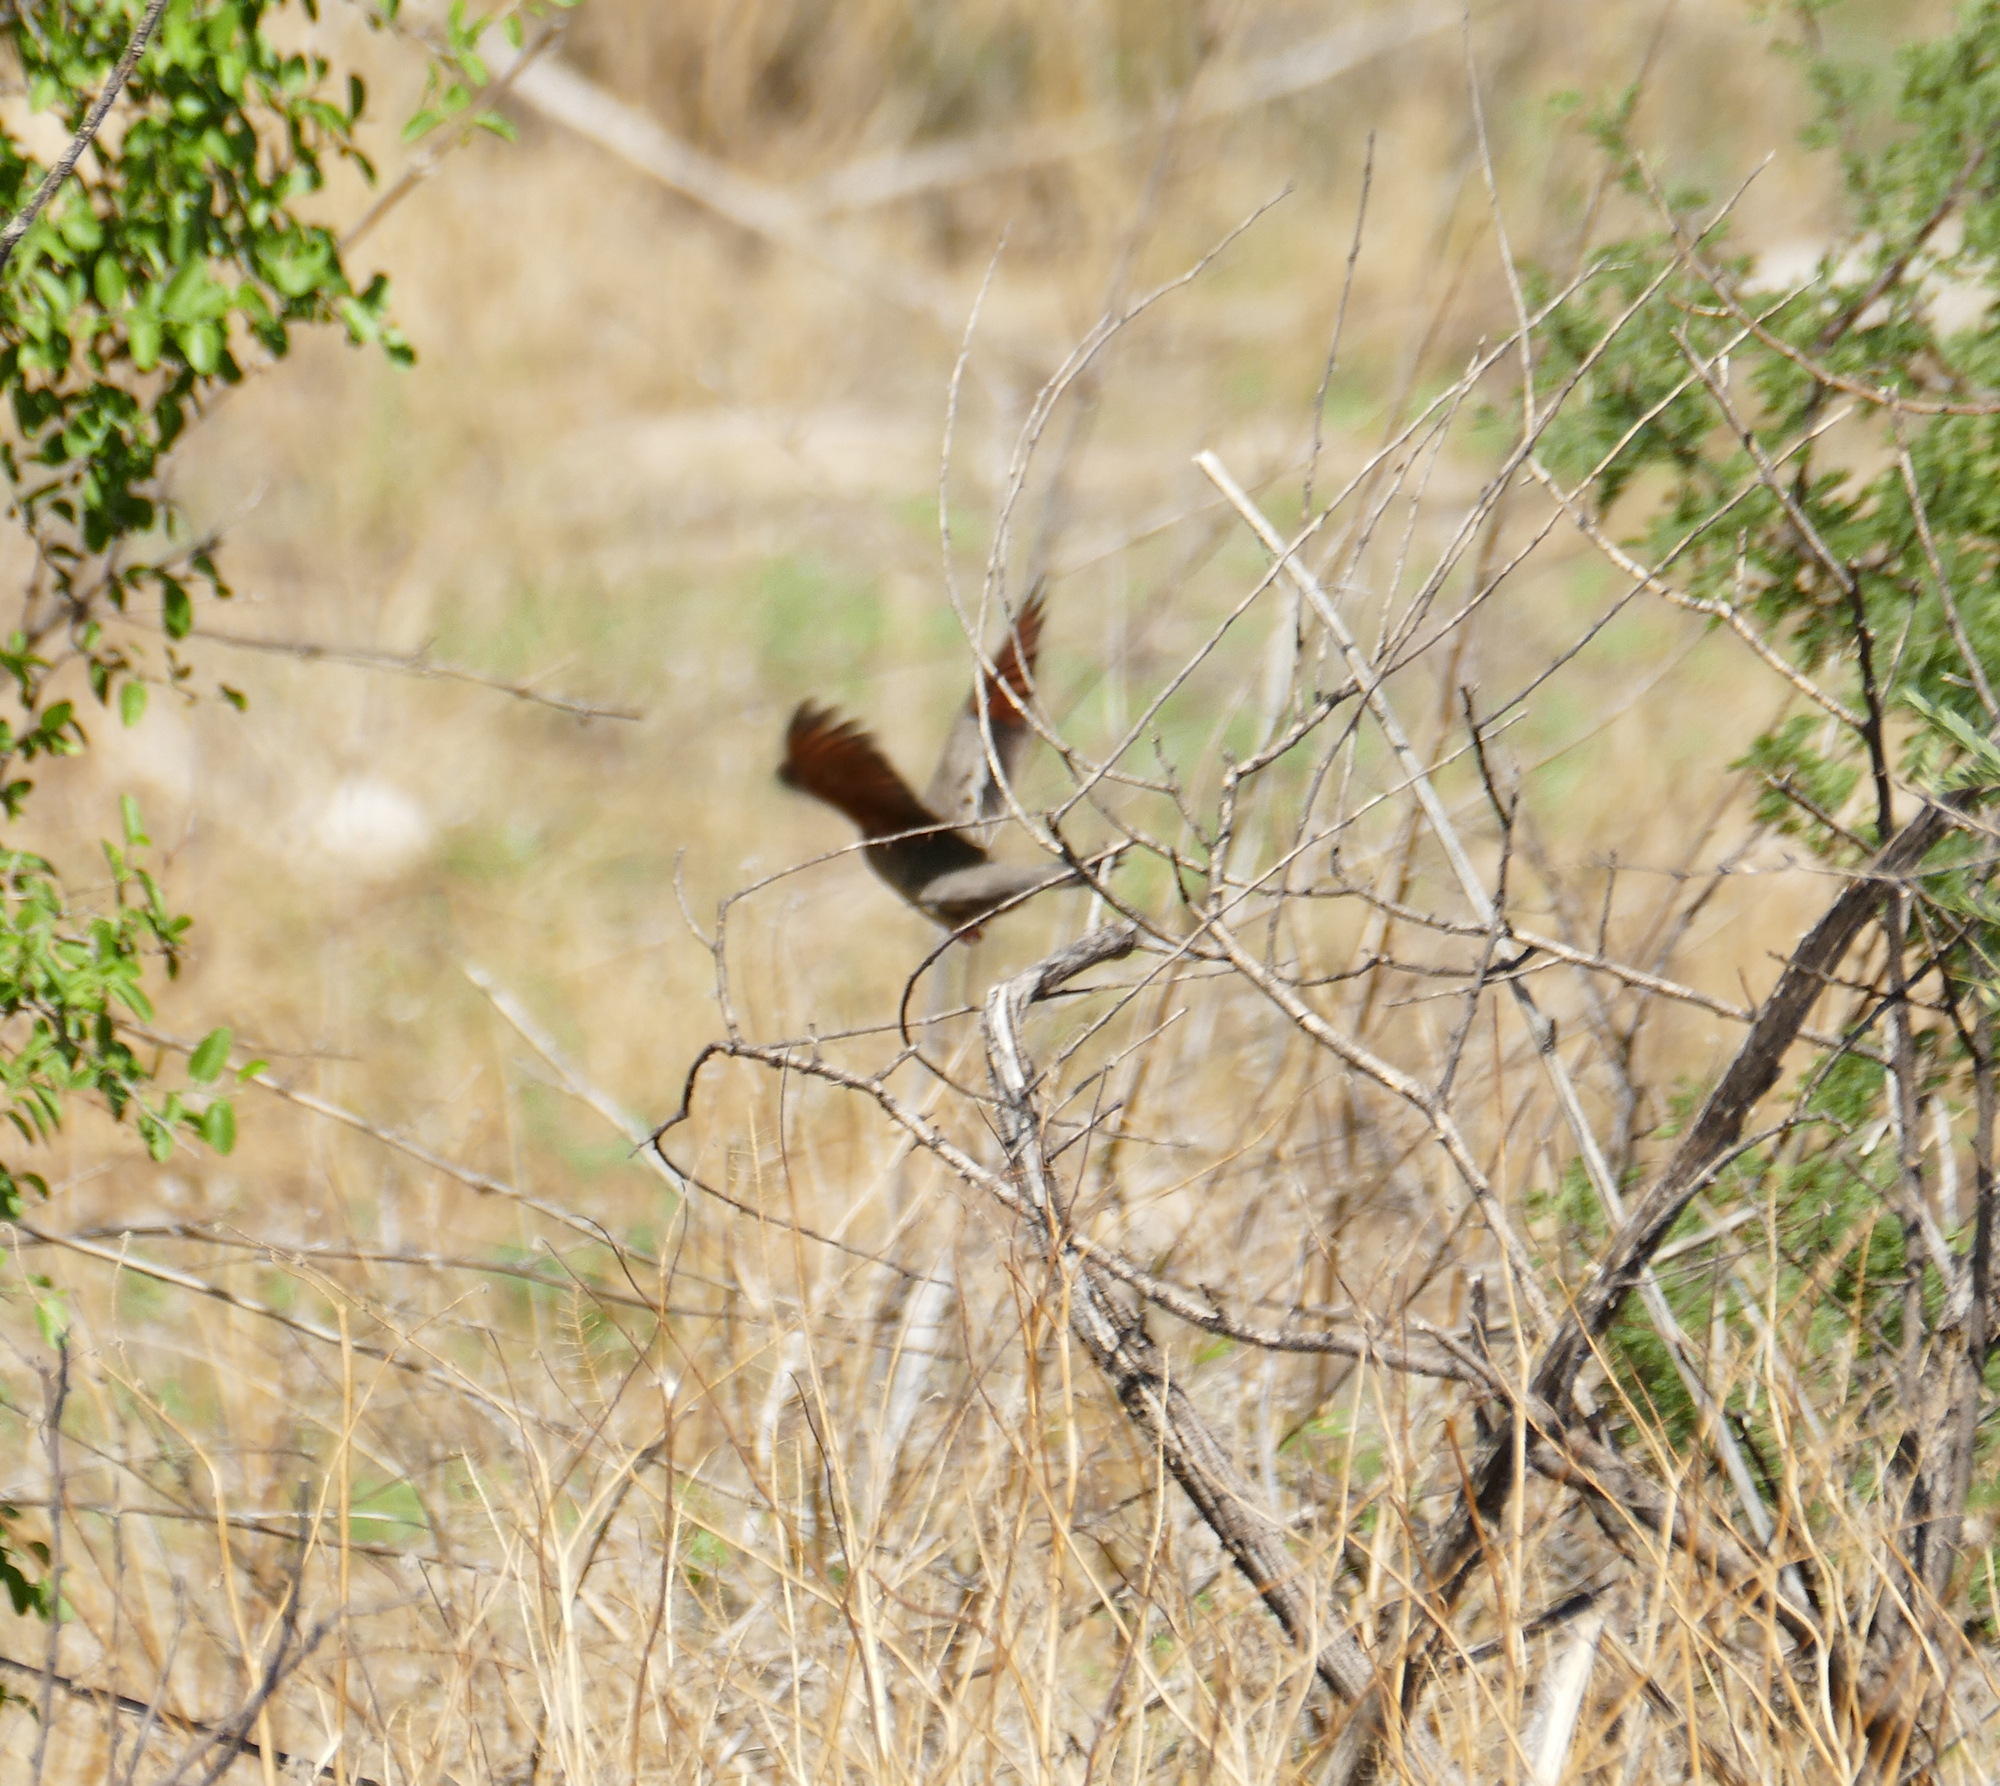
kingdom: Animalia
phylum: Chordata
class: Aves
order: Columbiformes
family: Columbidae
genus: Columbina
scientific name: Columbina passerina
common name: Common ground-dove
